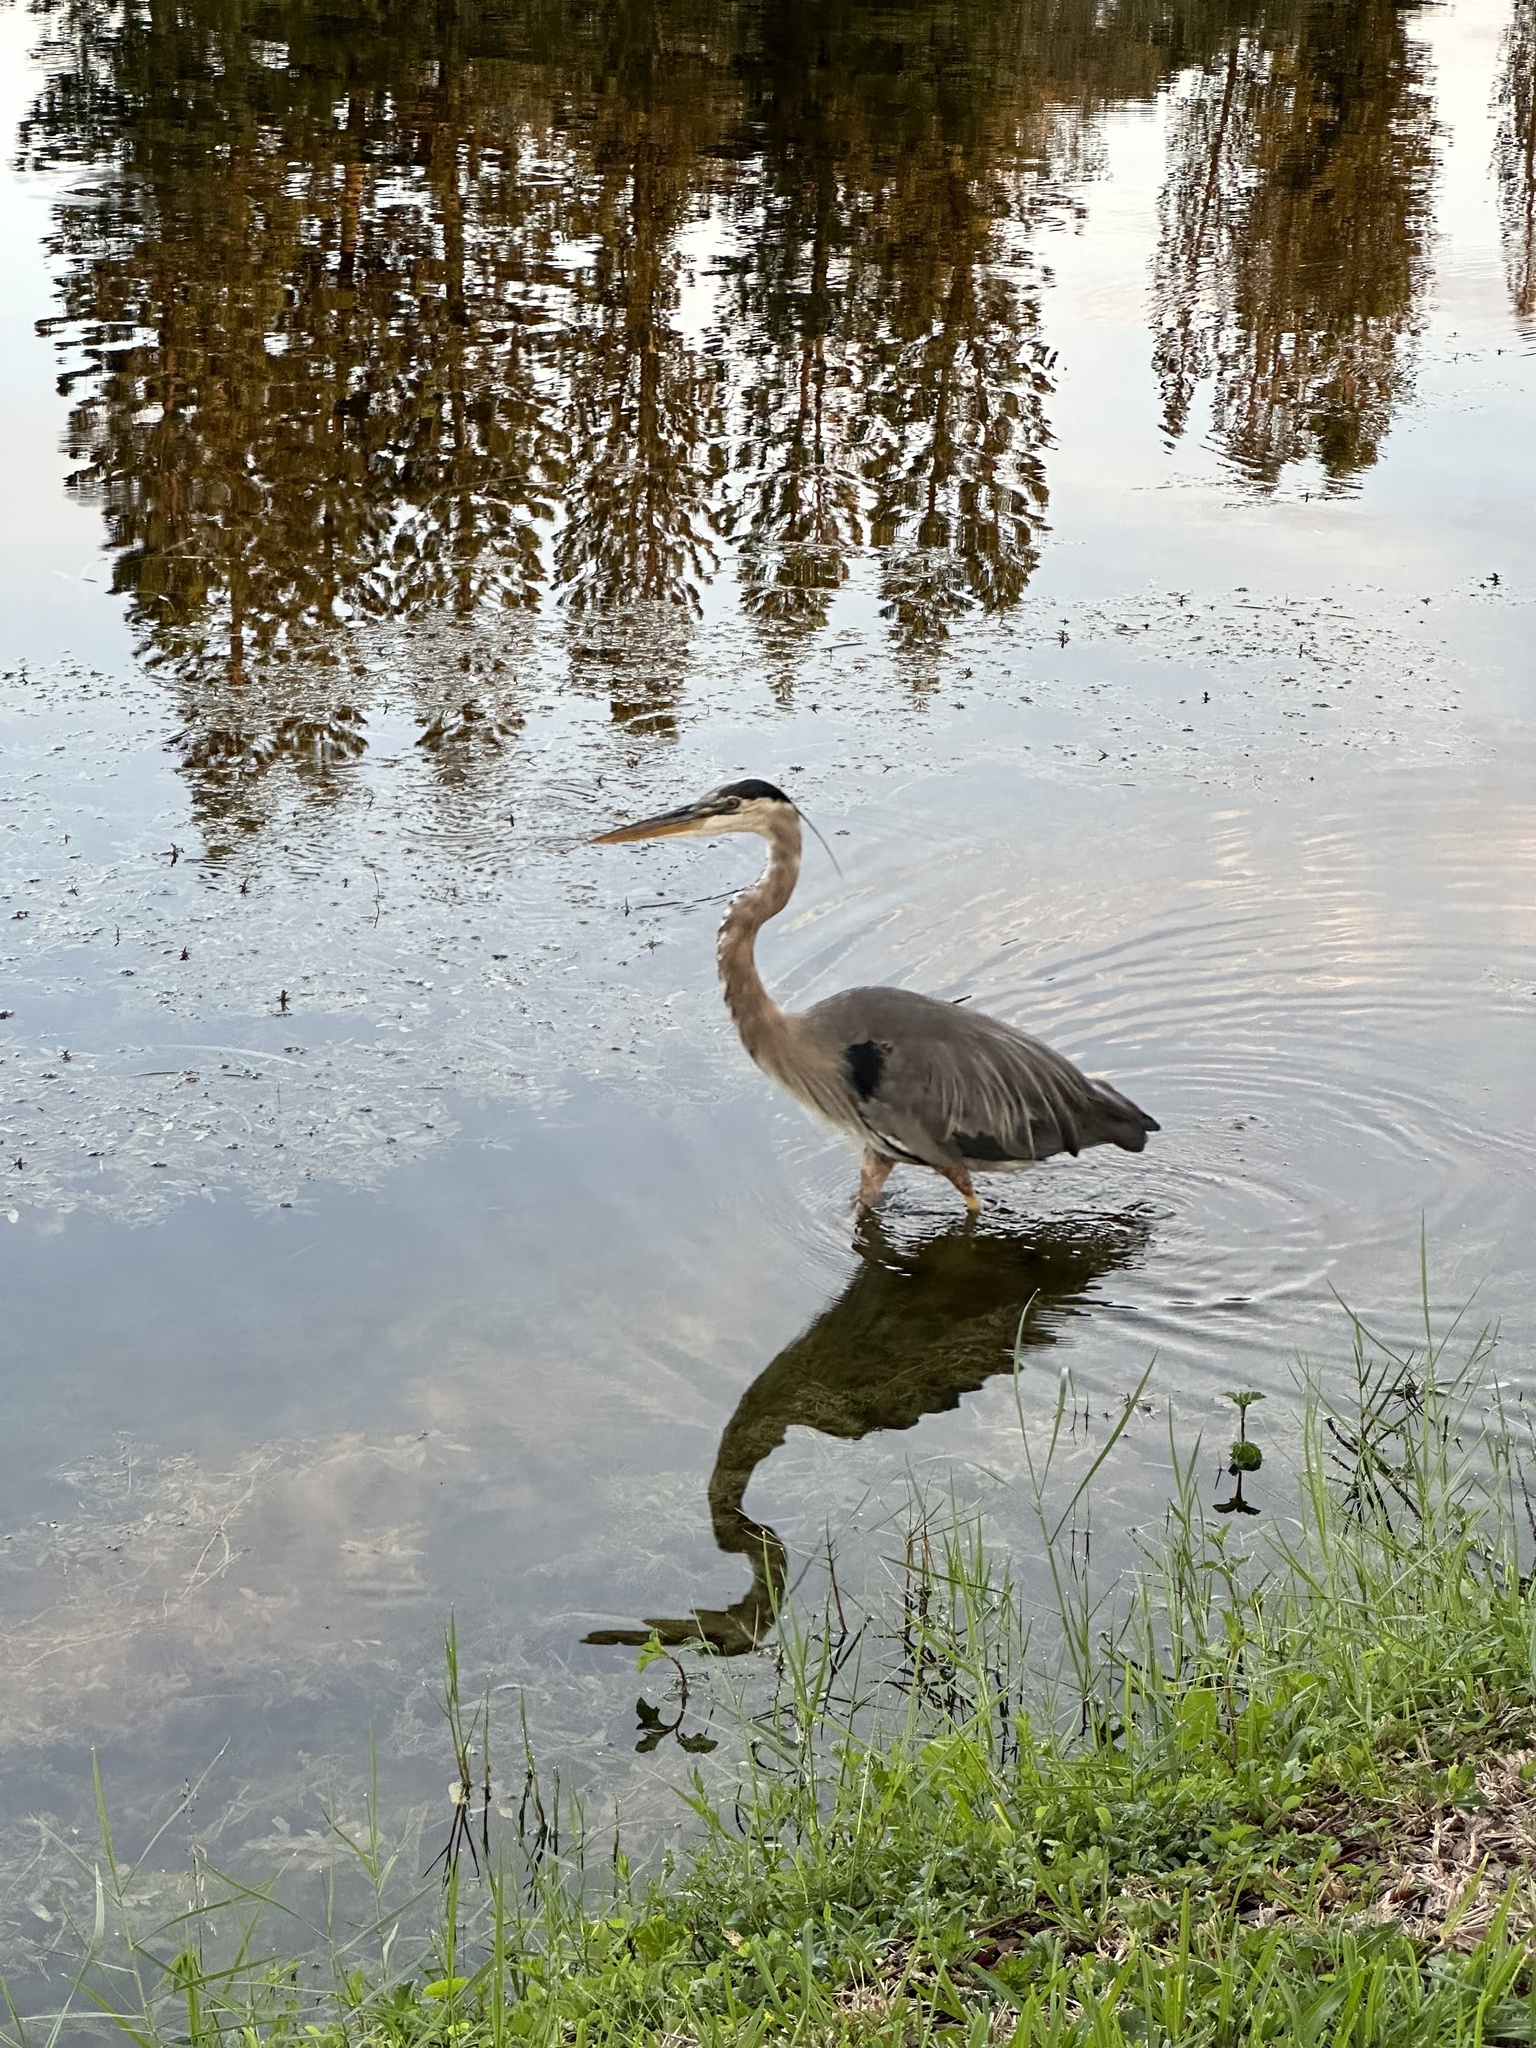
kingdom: Animalia
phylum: Chordata
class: Aves
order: Pelecaniformes
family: Ardeidae
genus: Ardea
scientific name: Ardea herodias
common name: Great blue heron
